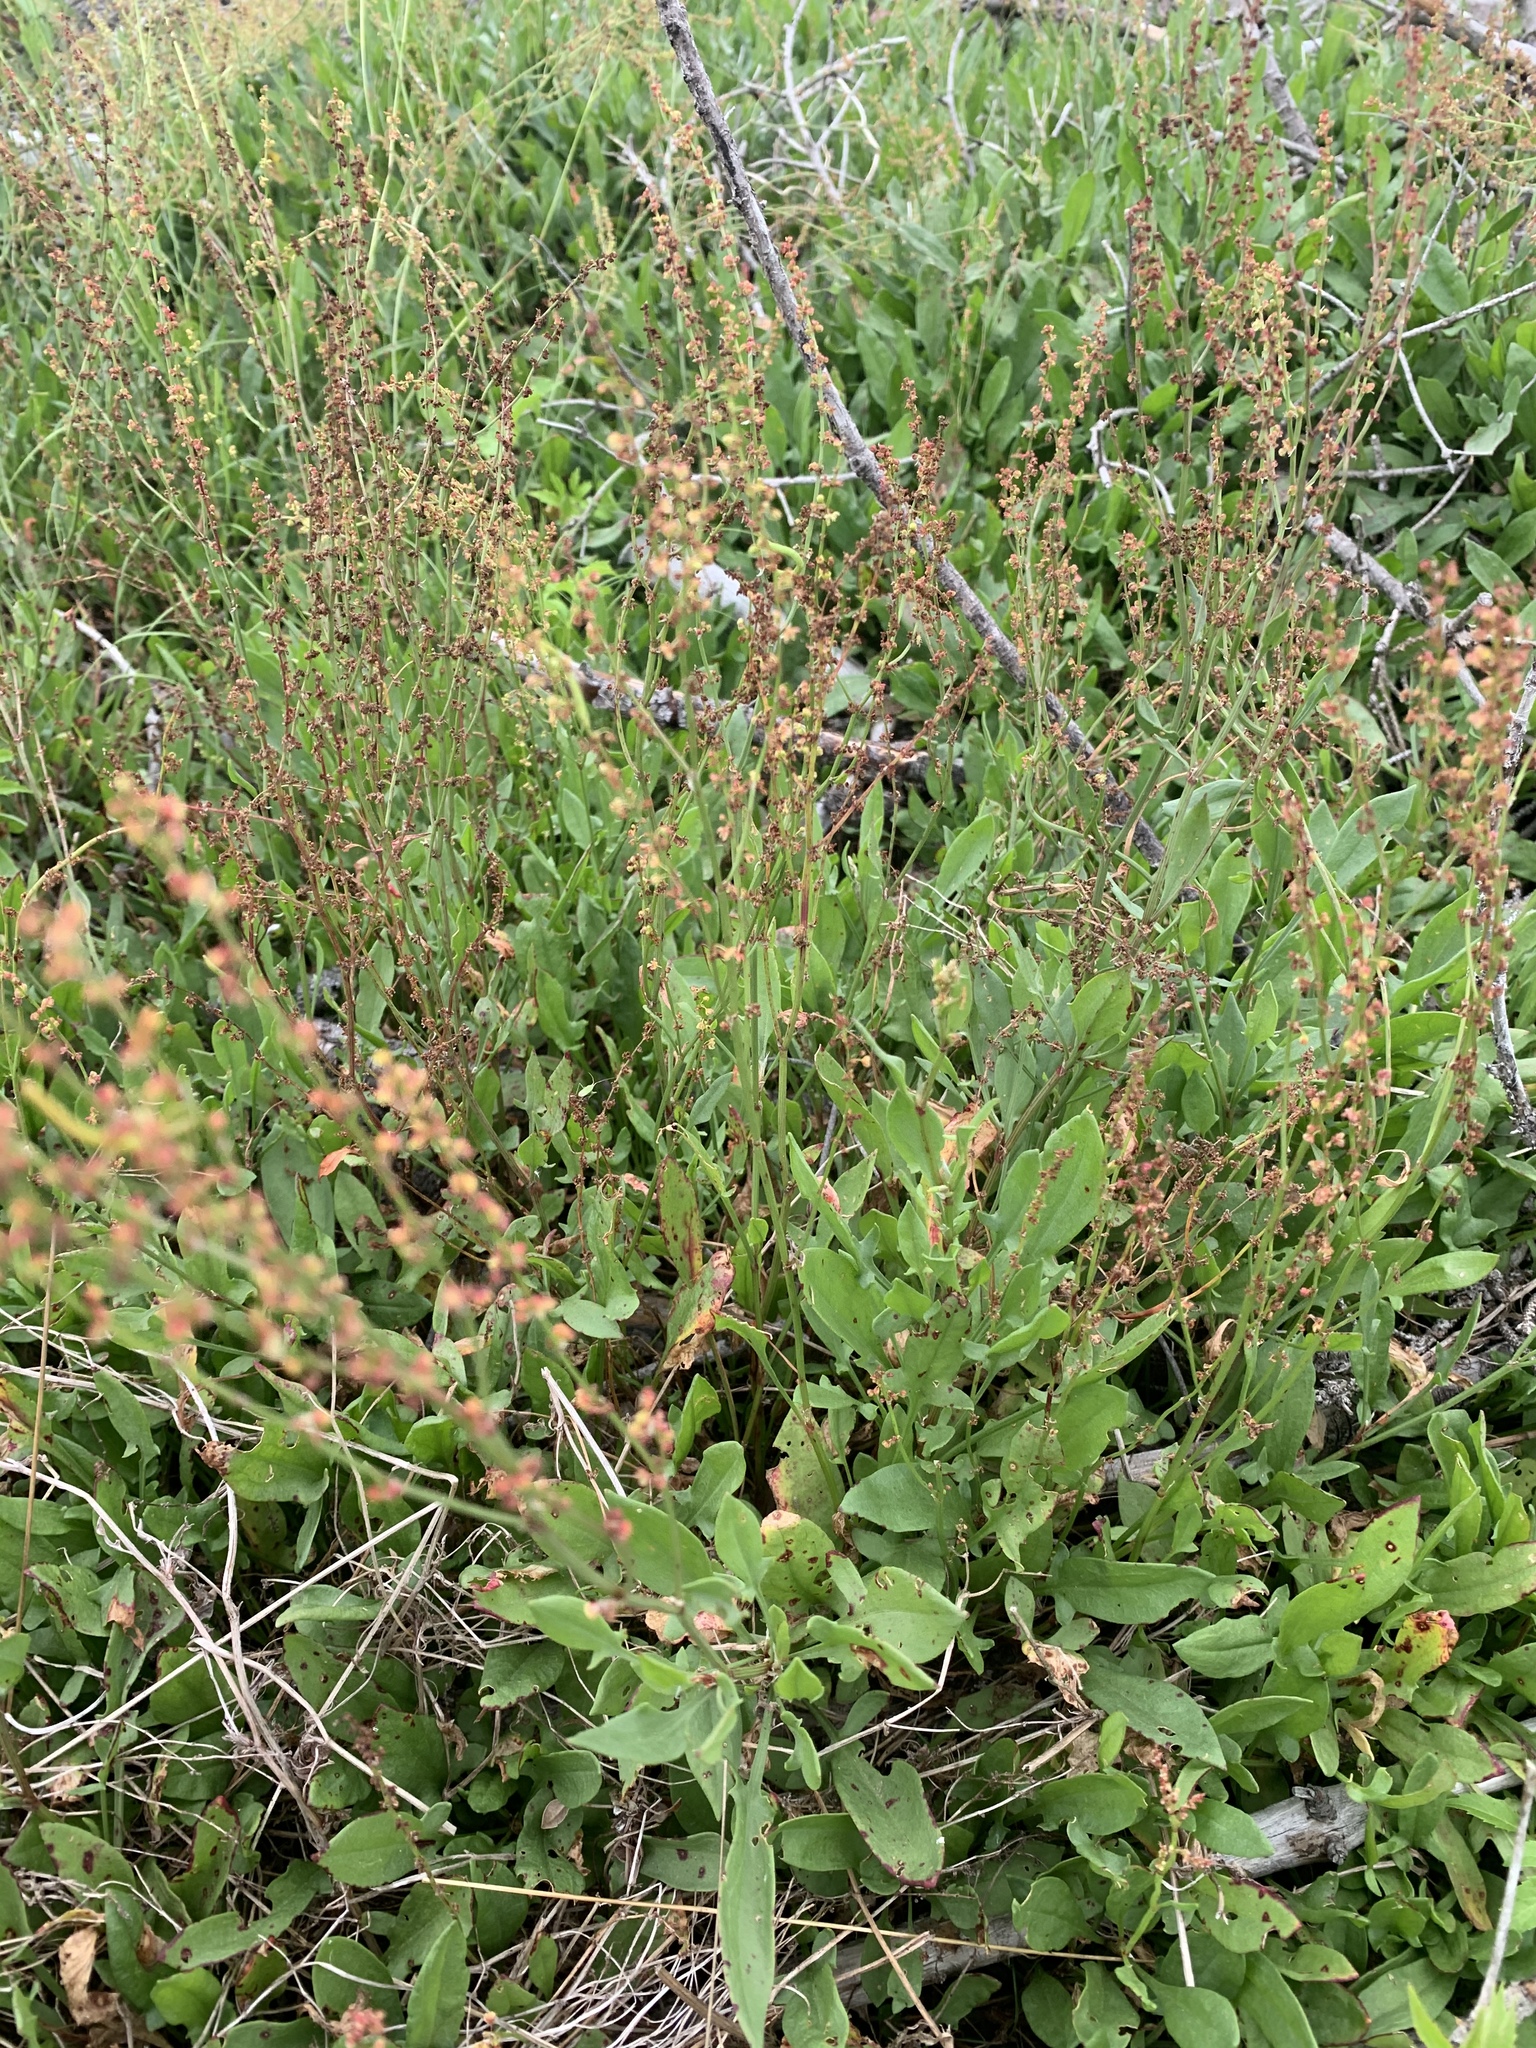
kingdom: Plantae
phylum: Tracheophyta
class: Magnoliopsida
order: Caryophyllales
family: Polygonaceae
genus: Rumex
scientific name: Rumex acetosella
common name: Common sheep sorrel
